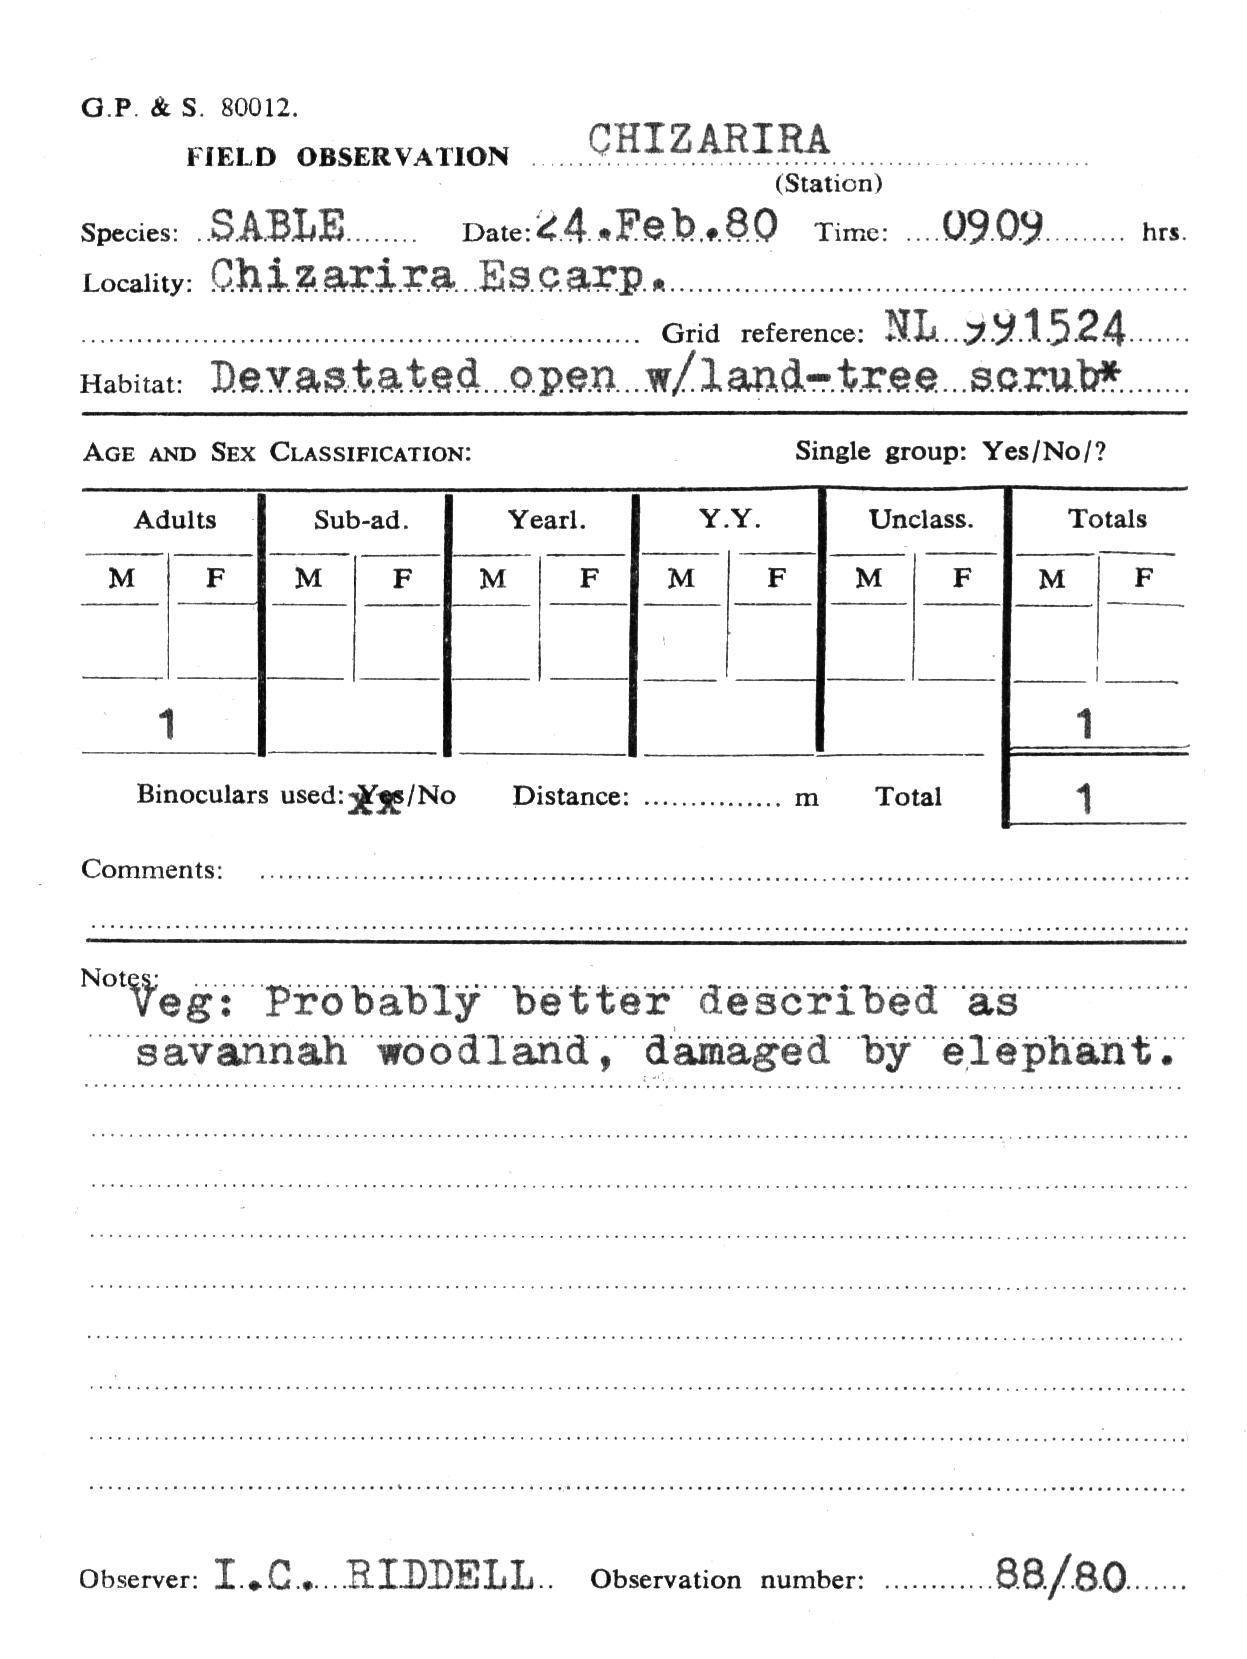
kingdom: Animalia
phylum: Chordata
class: Mammalia
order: Artiodactyla
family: Bovidae
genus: Hippotragus
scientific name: Hippotragus niger
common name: Sable antelope
